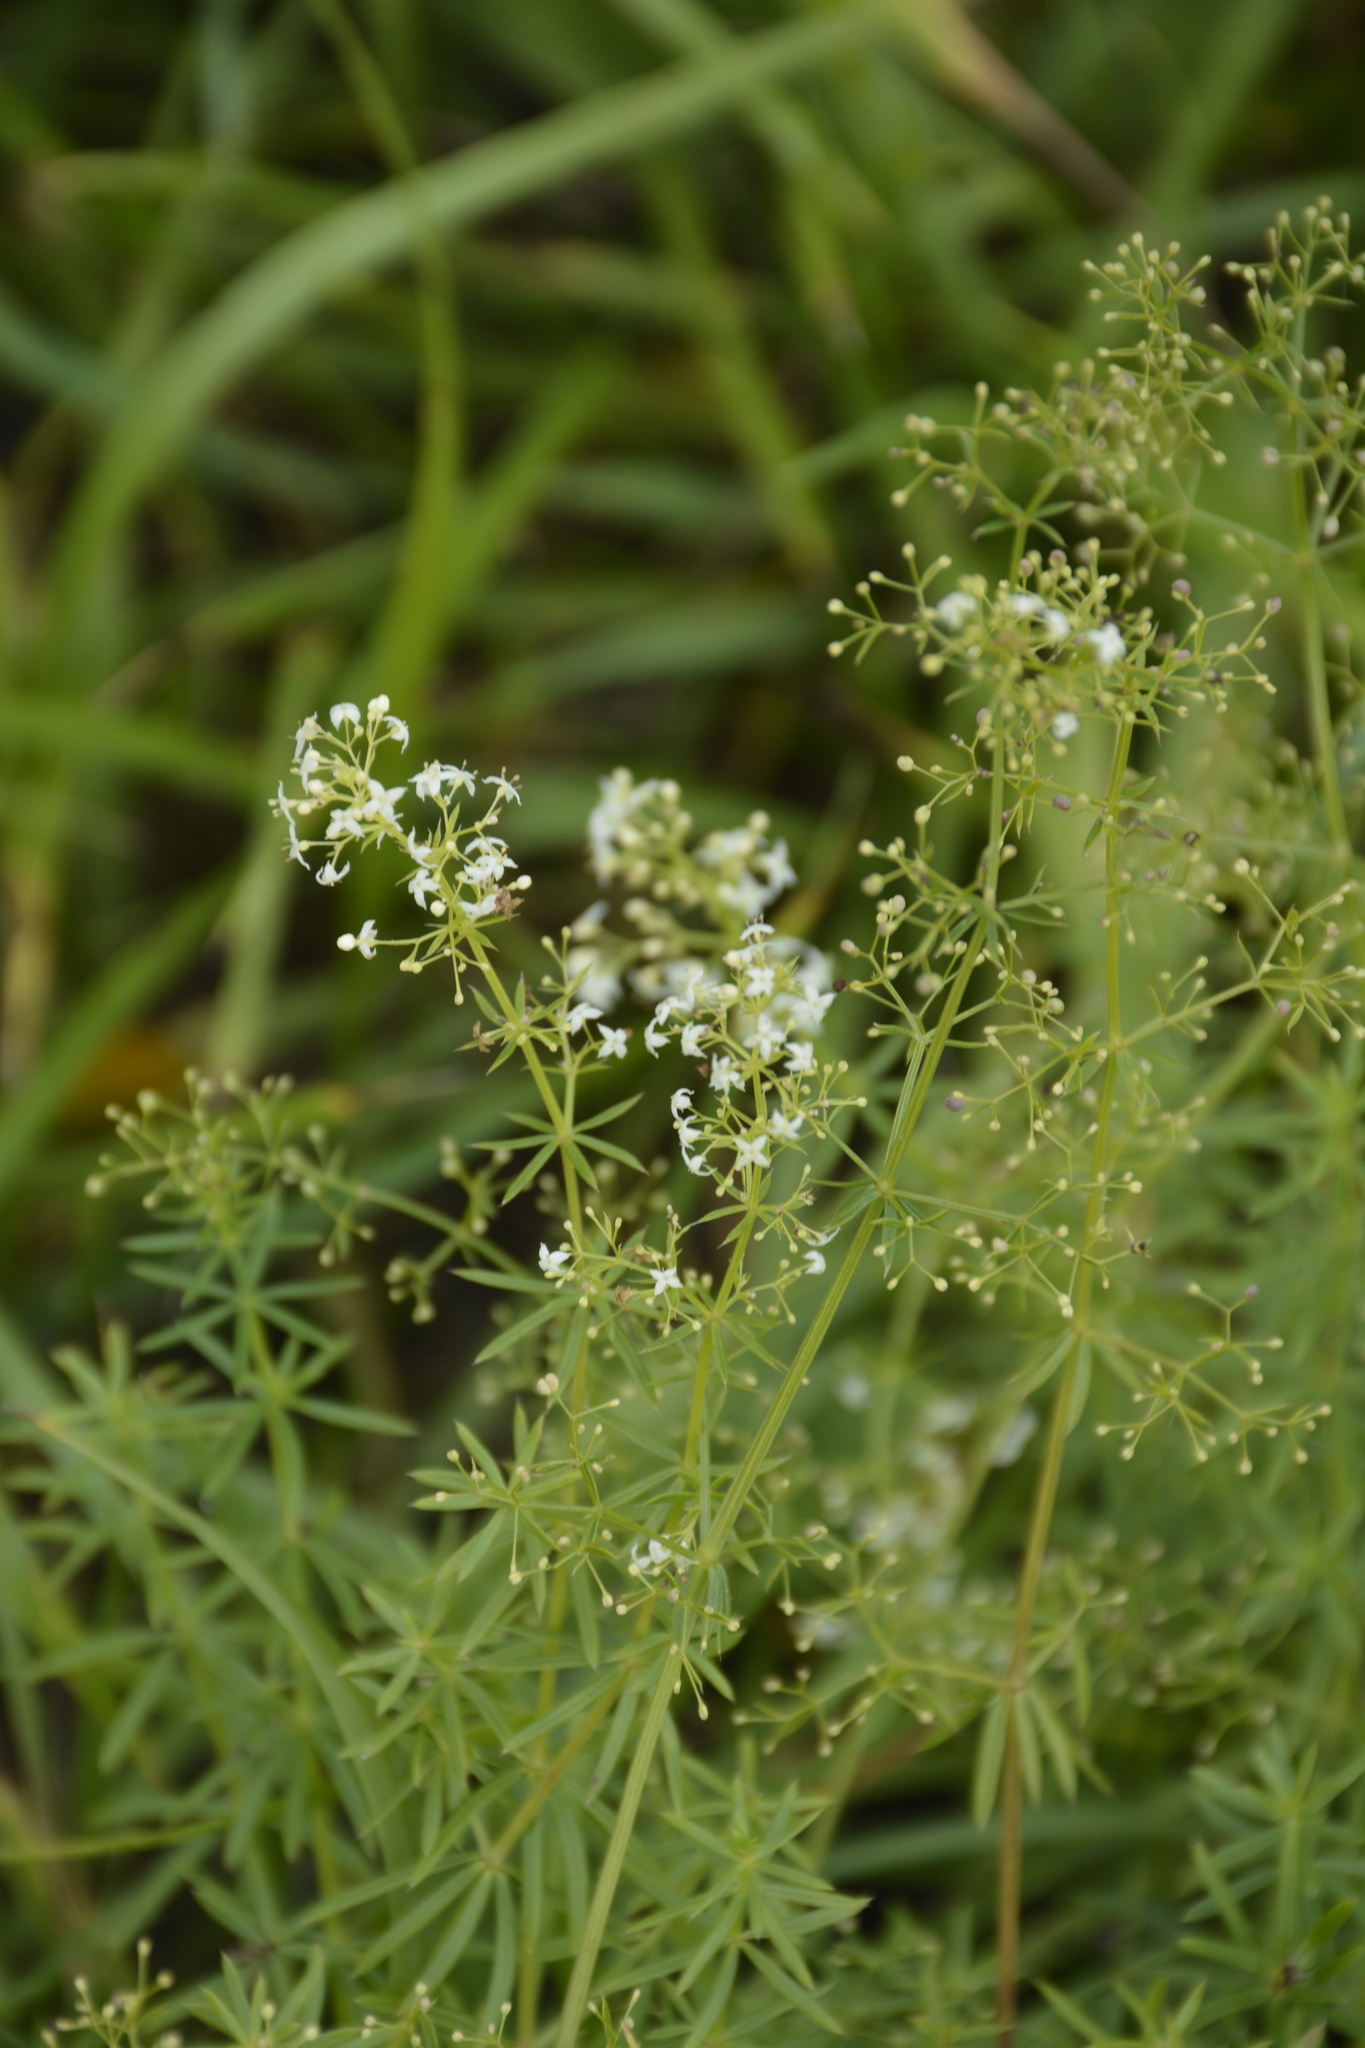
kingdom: Plantae
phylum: Tracheophyta
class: Magnoliopsida
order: Gentianales
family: Rubiaceae
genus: Galium
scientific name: Galium mollugo
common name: Hedge bedstraw
